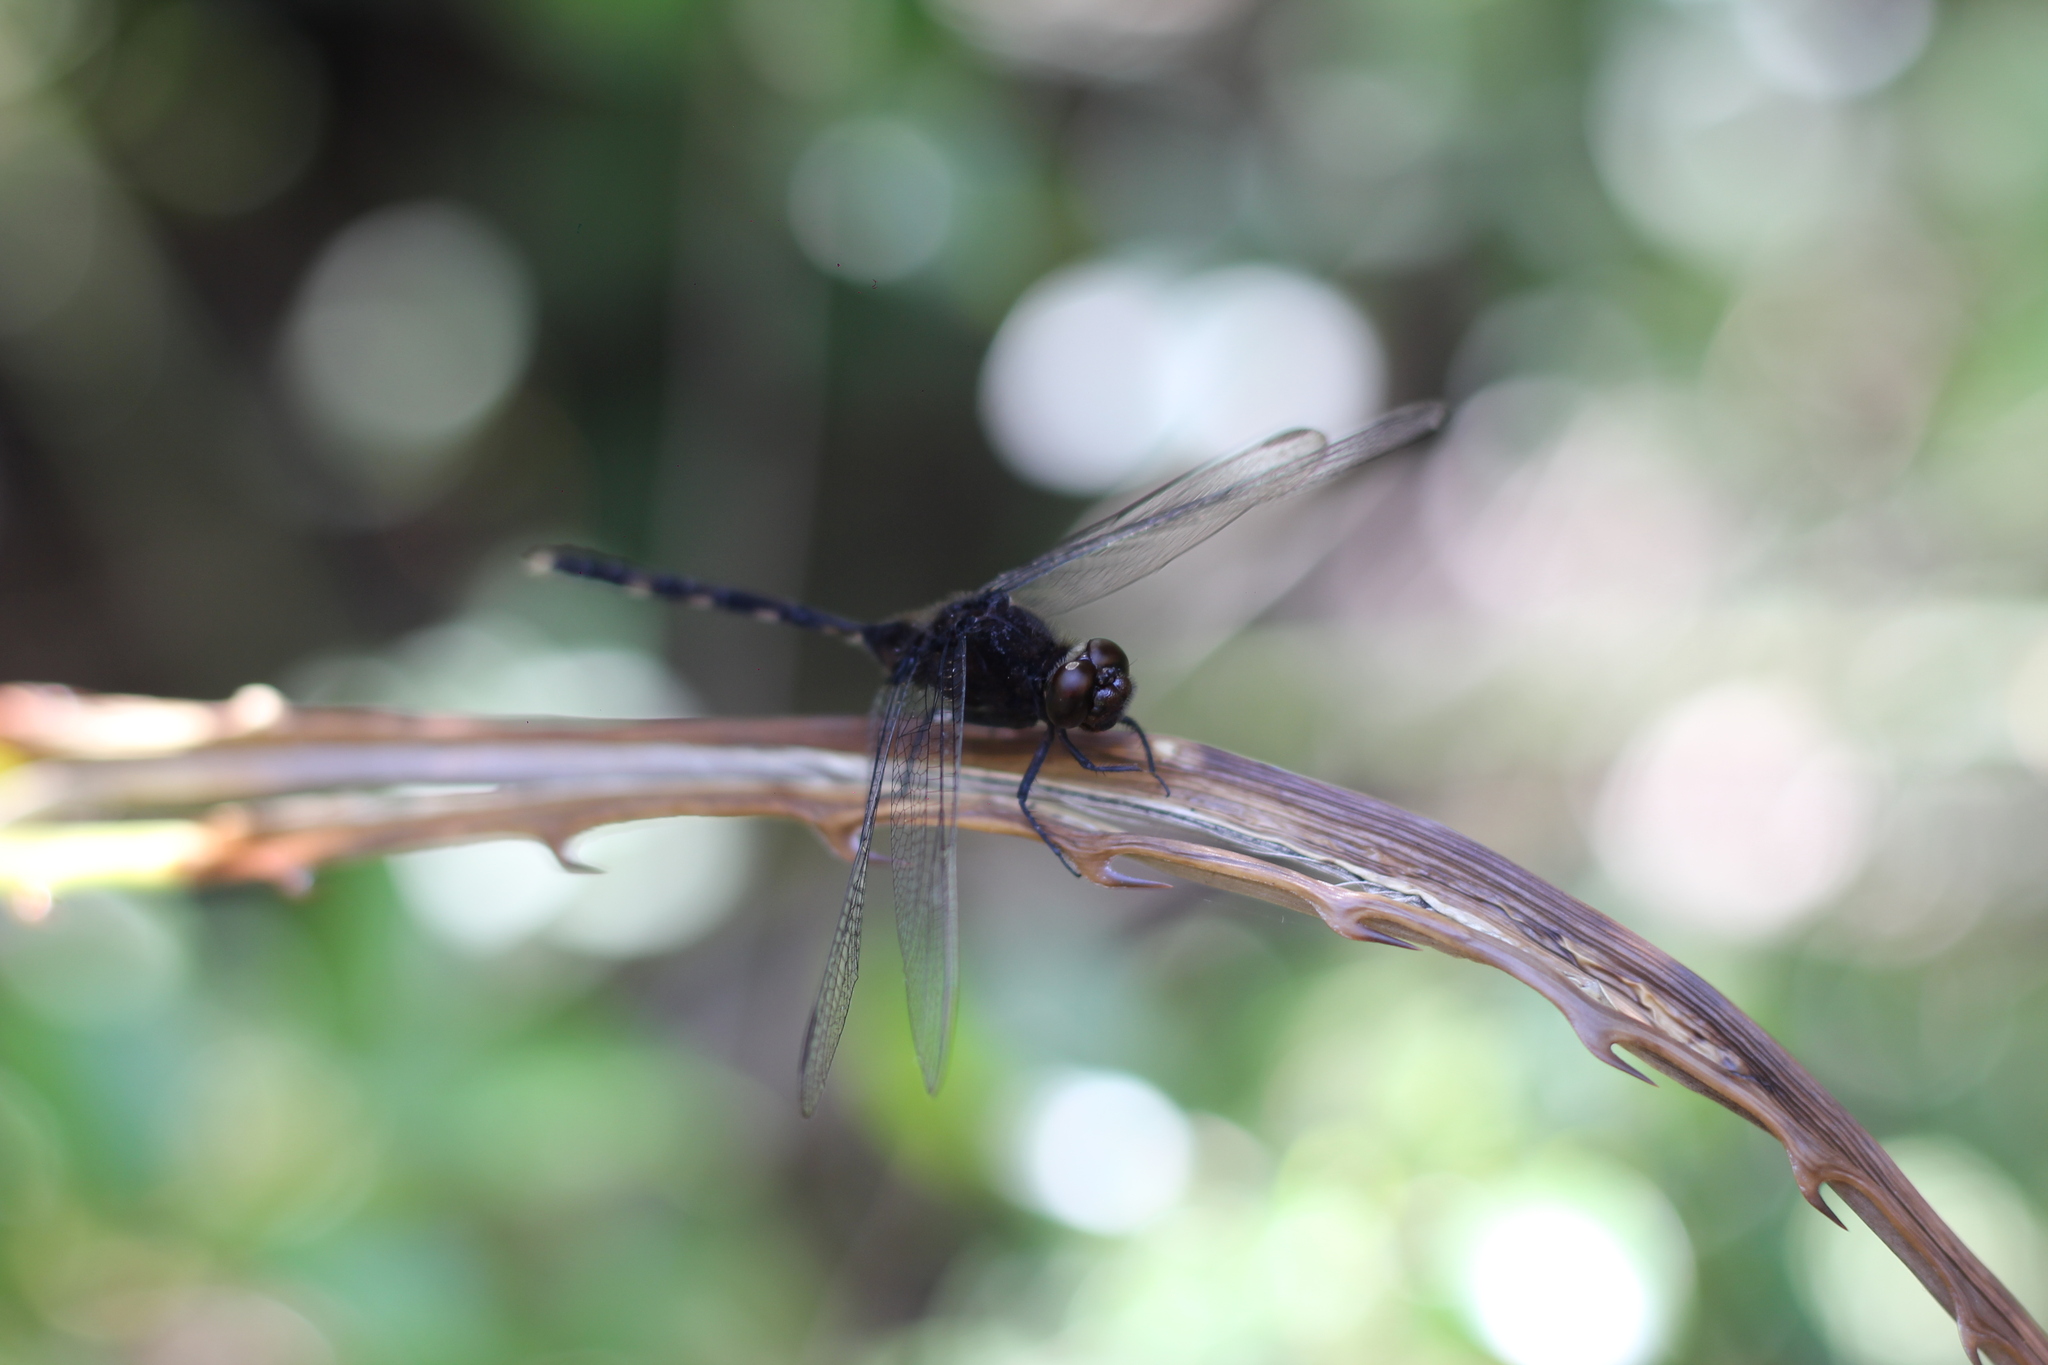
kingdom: Animalia
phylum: Arthropoda
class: Insecta
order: Odonata
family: Libellulidae
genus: Erythemis
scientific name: Erythemis plebeja
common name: Pin-tailed pondhawk
